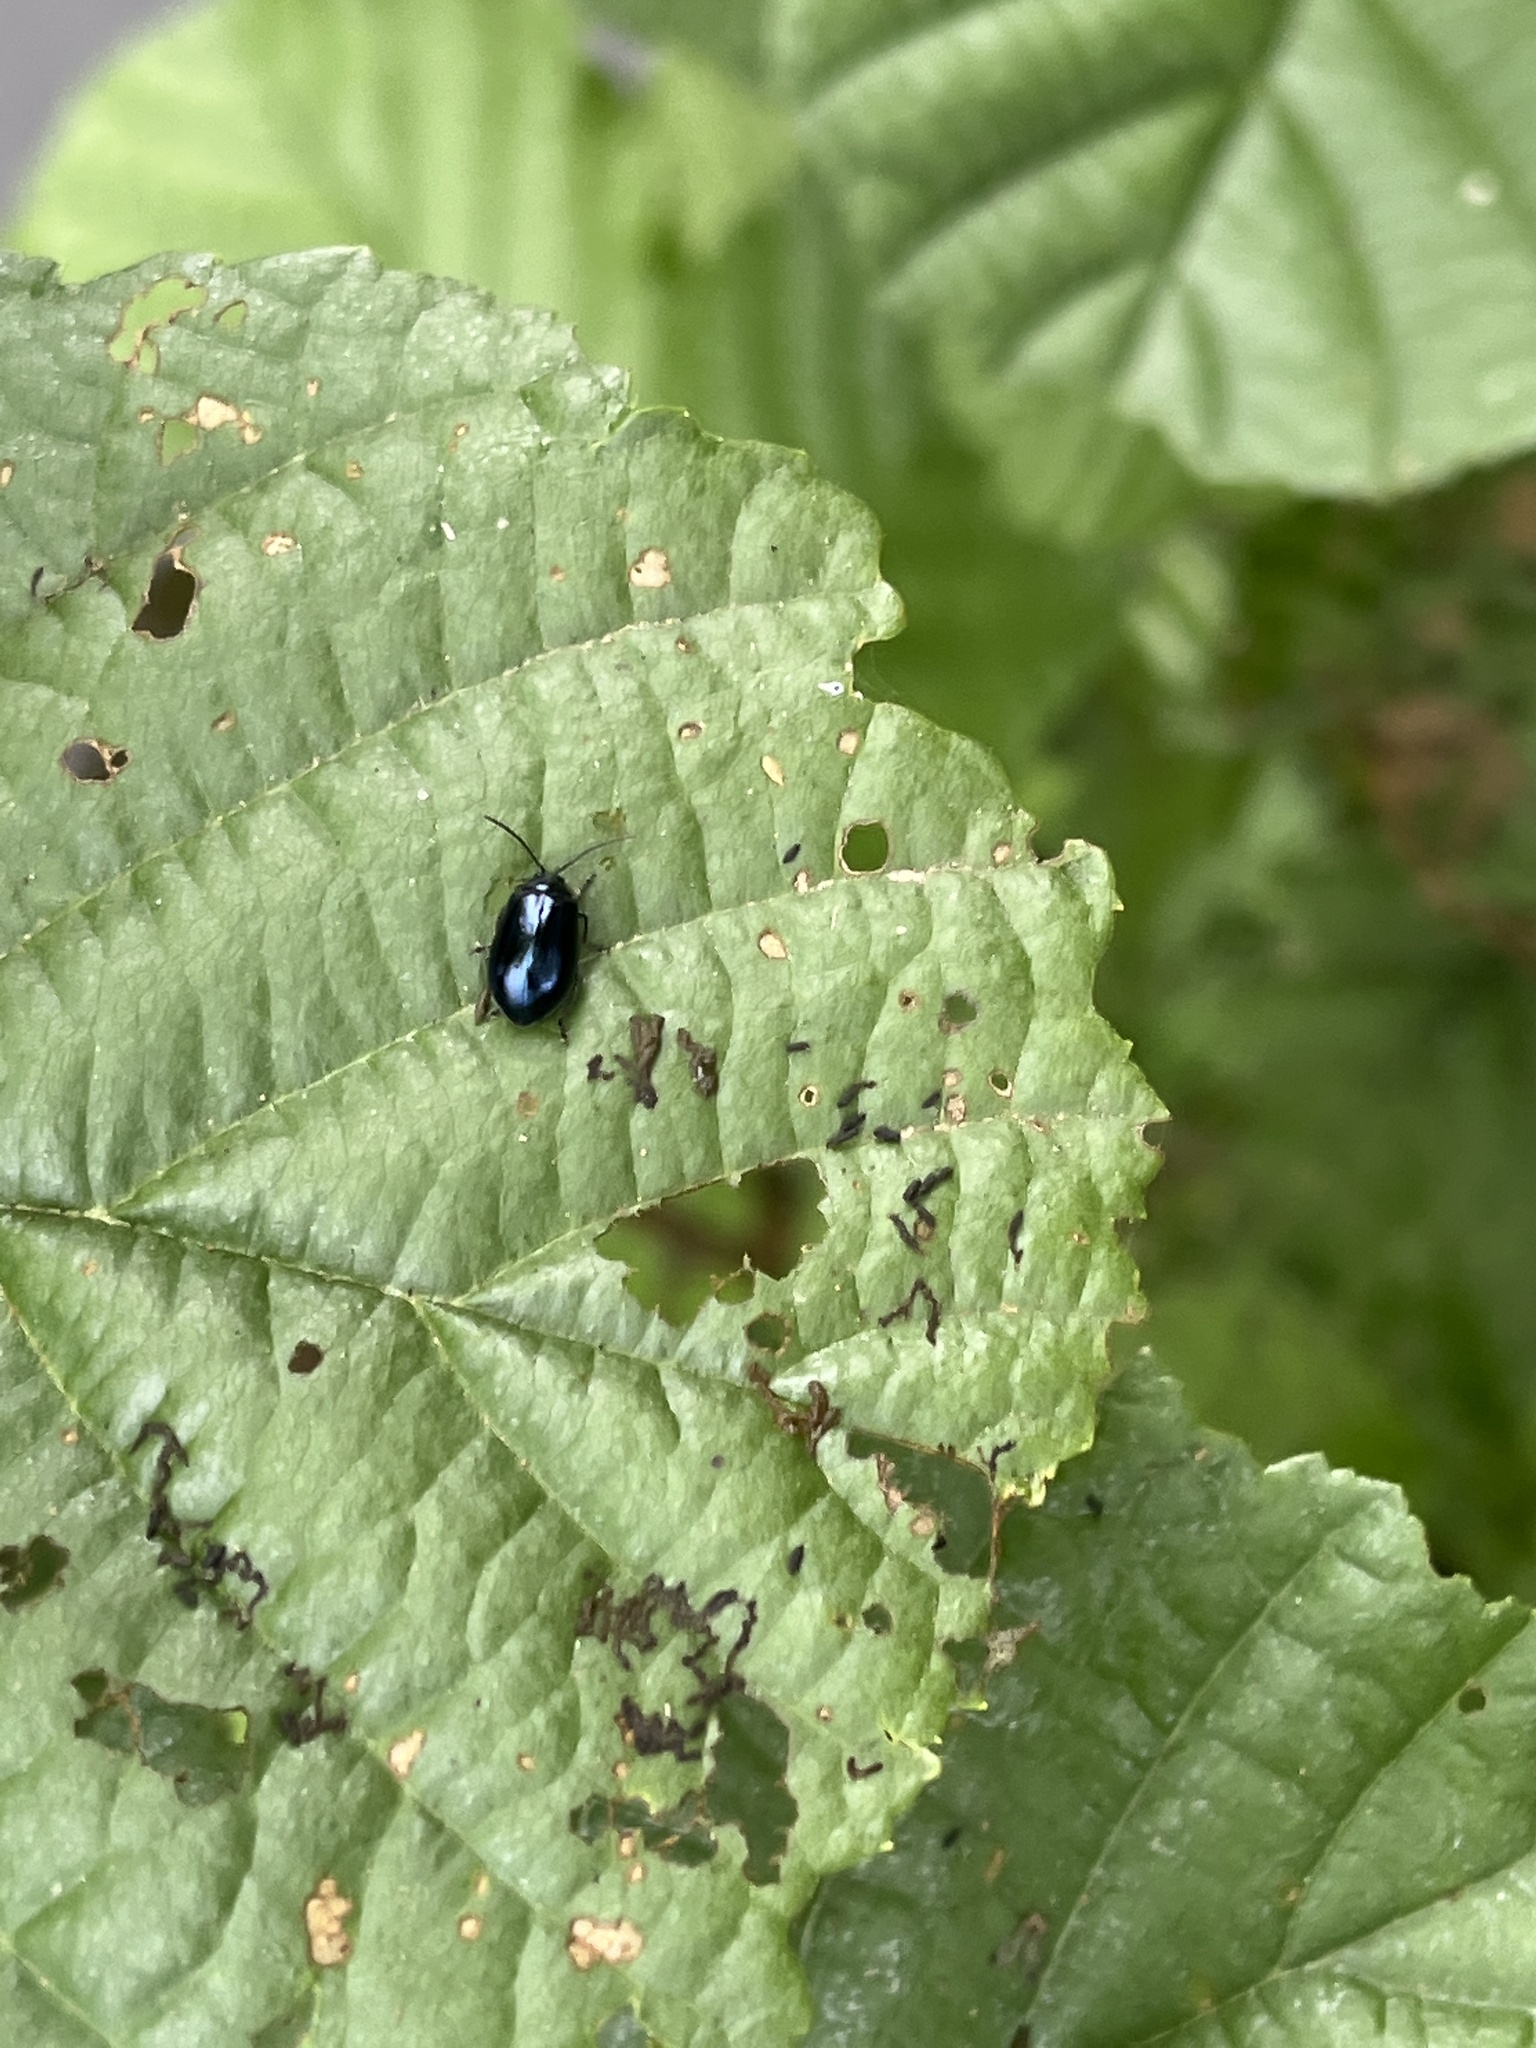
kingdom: Animalia
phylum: Arthropoda
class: Insecta
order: Coleoptera
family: Chrysomelidae
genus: Agelastica
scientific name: Agelastica alni
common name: Alder leaf beetle
